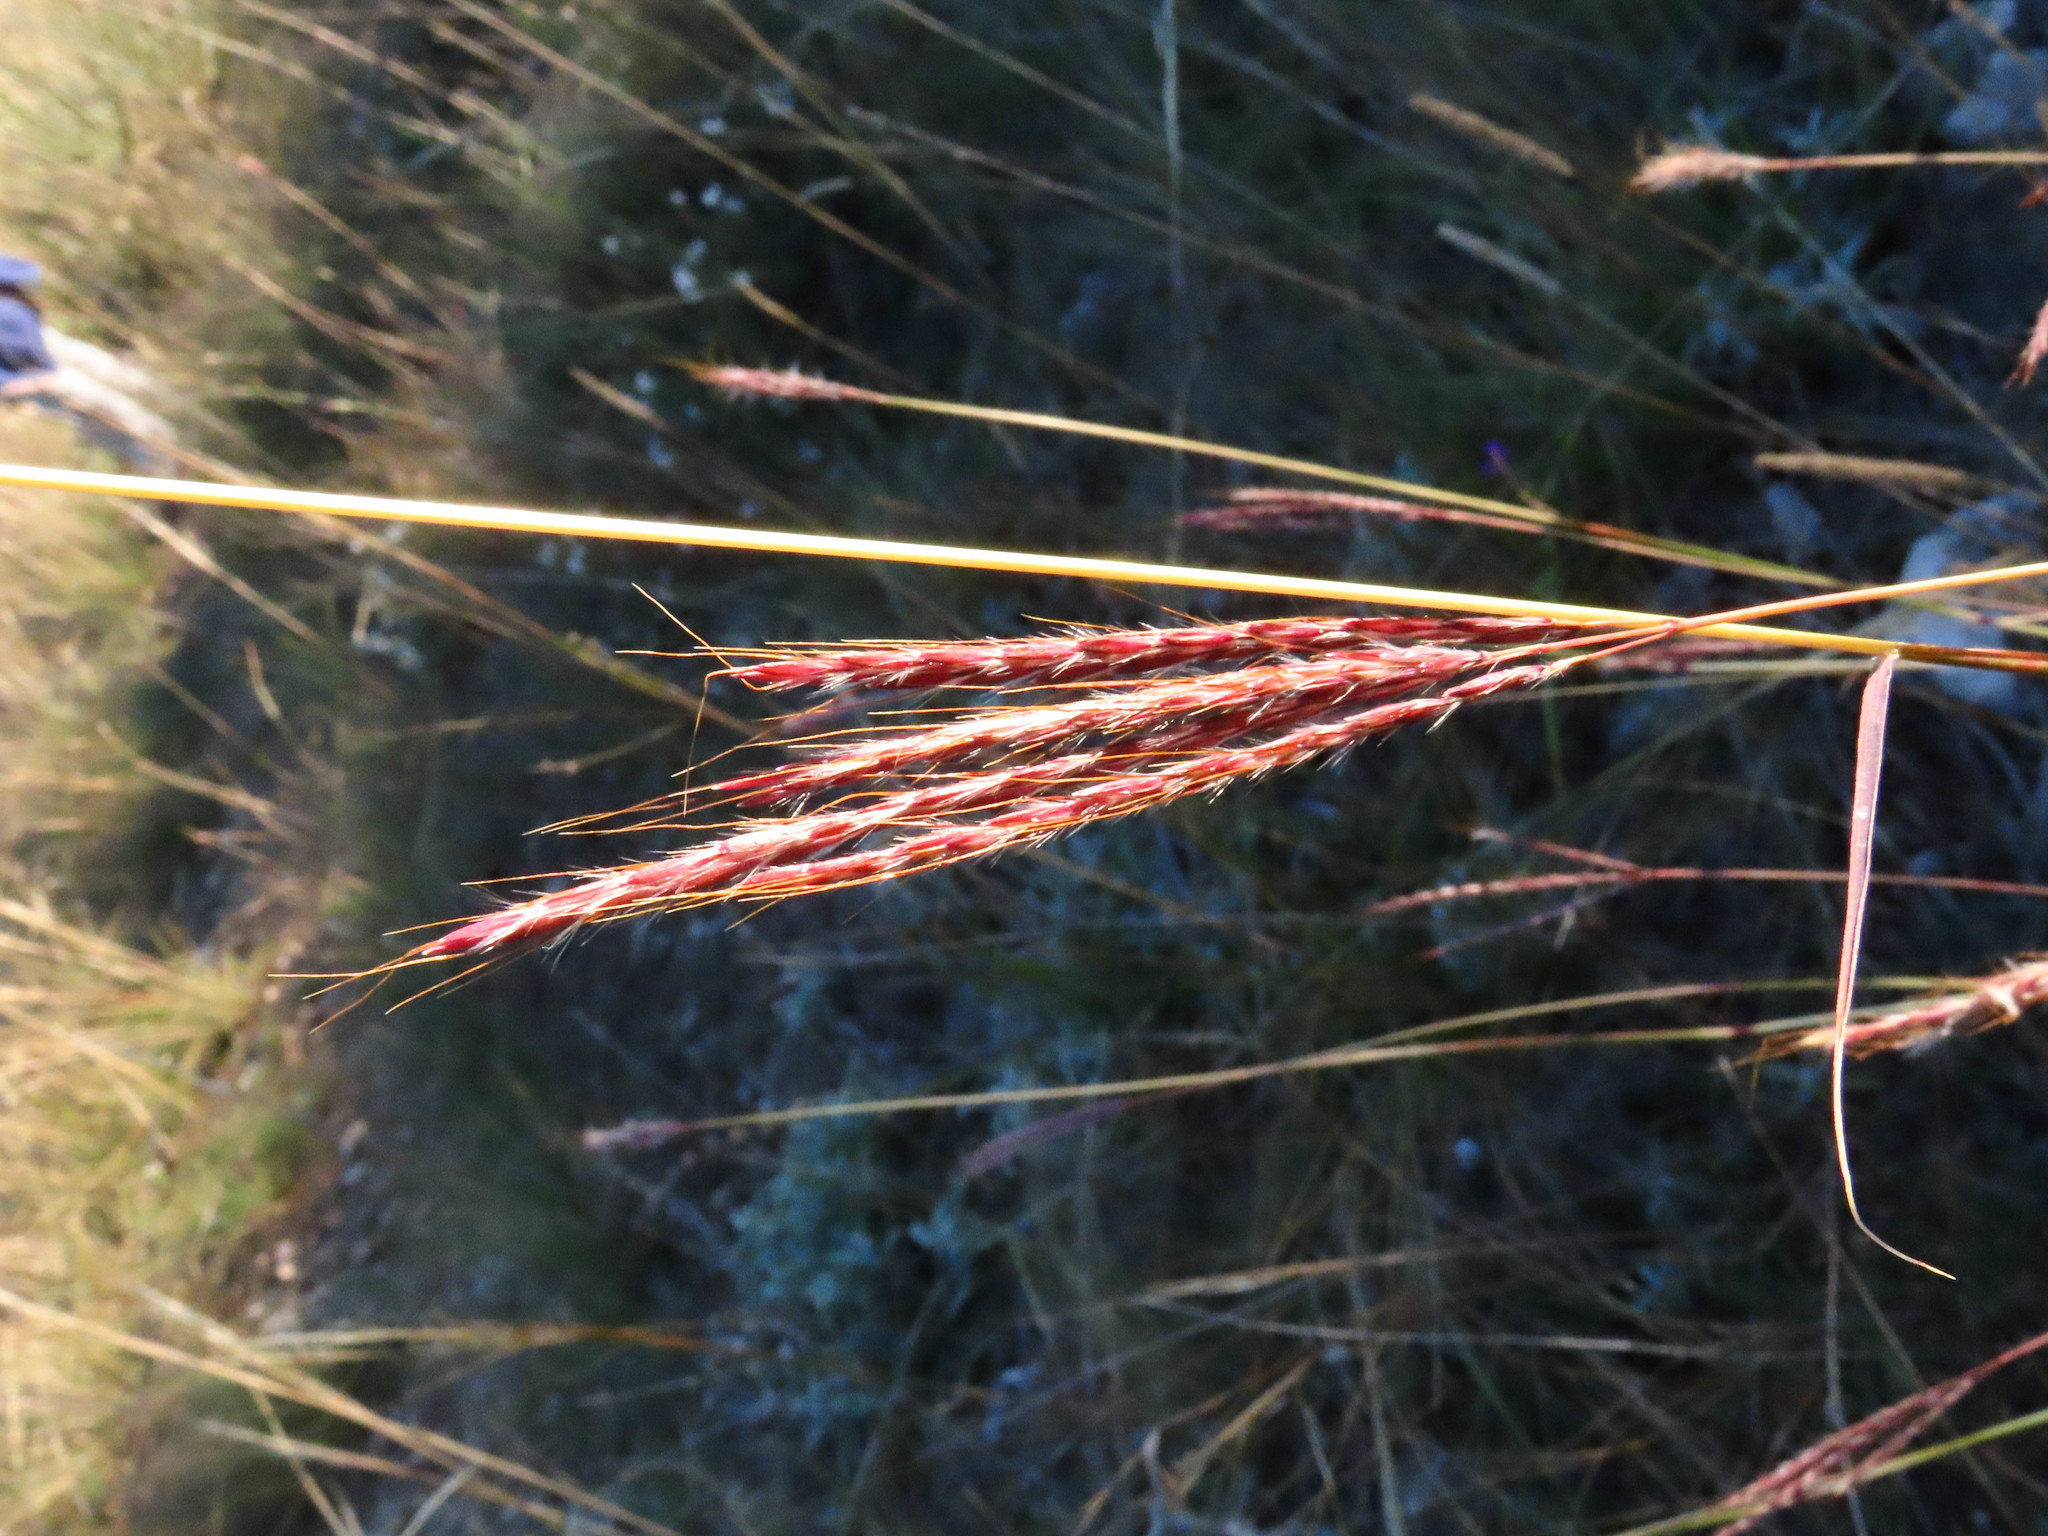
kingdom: Plantae
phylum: Tracheophyta
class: Liliopsida
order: Poales
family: Poaceae
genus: Bothriochloa
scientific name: Bothriochloa ischaemum
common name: Yellow bluestem
